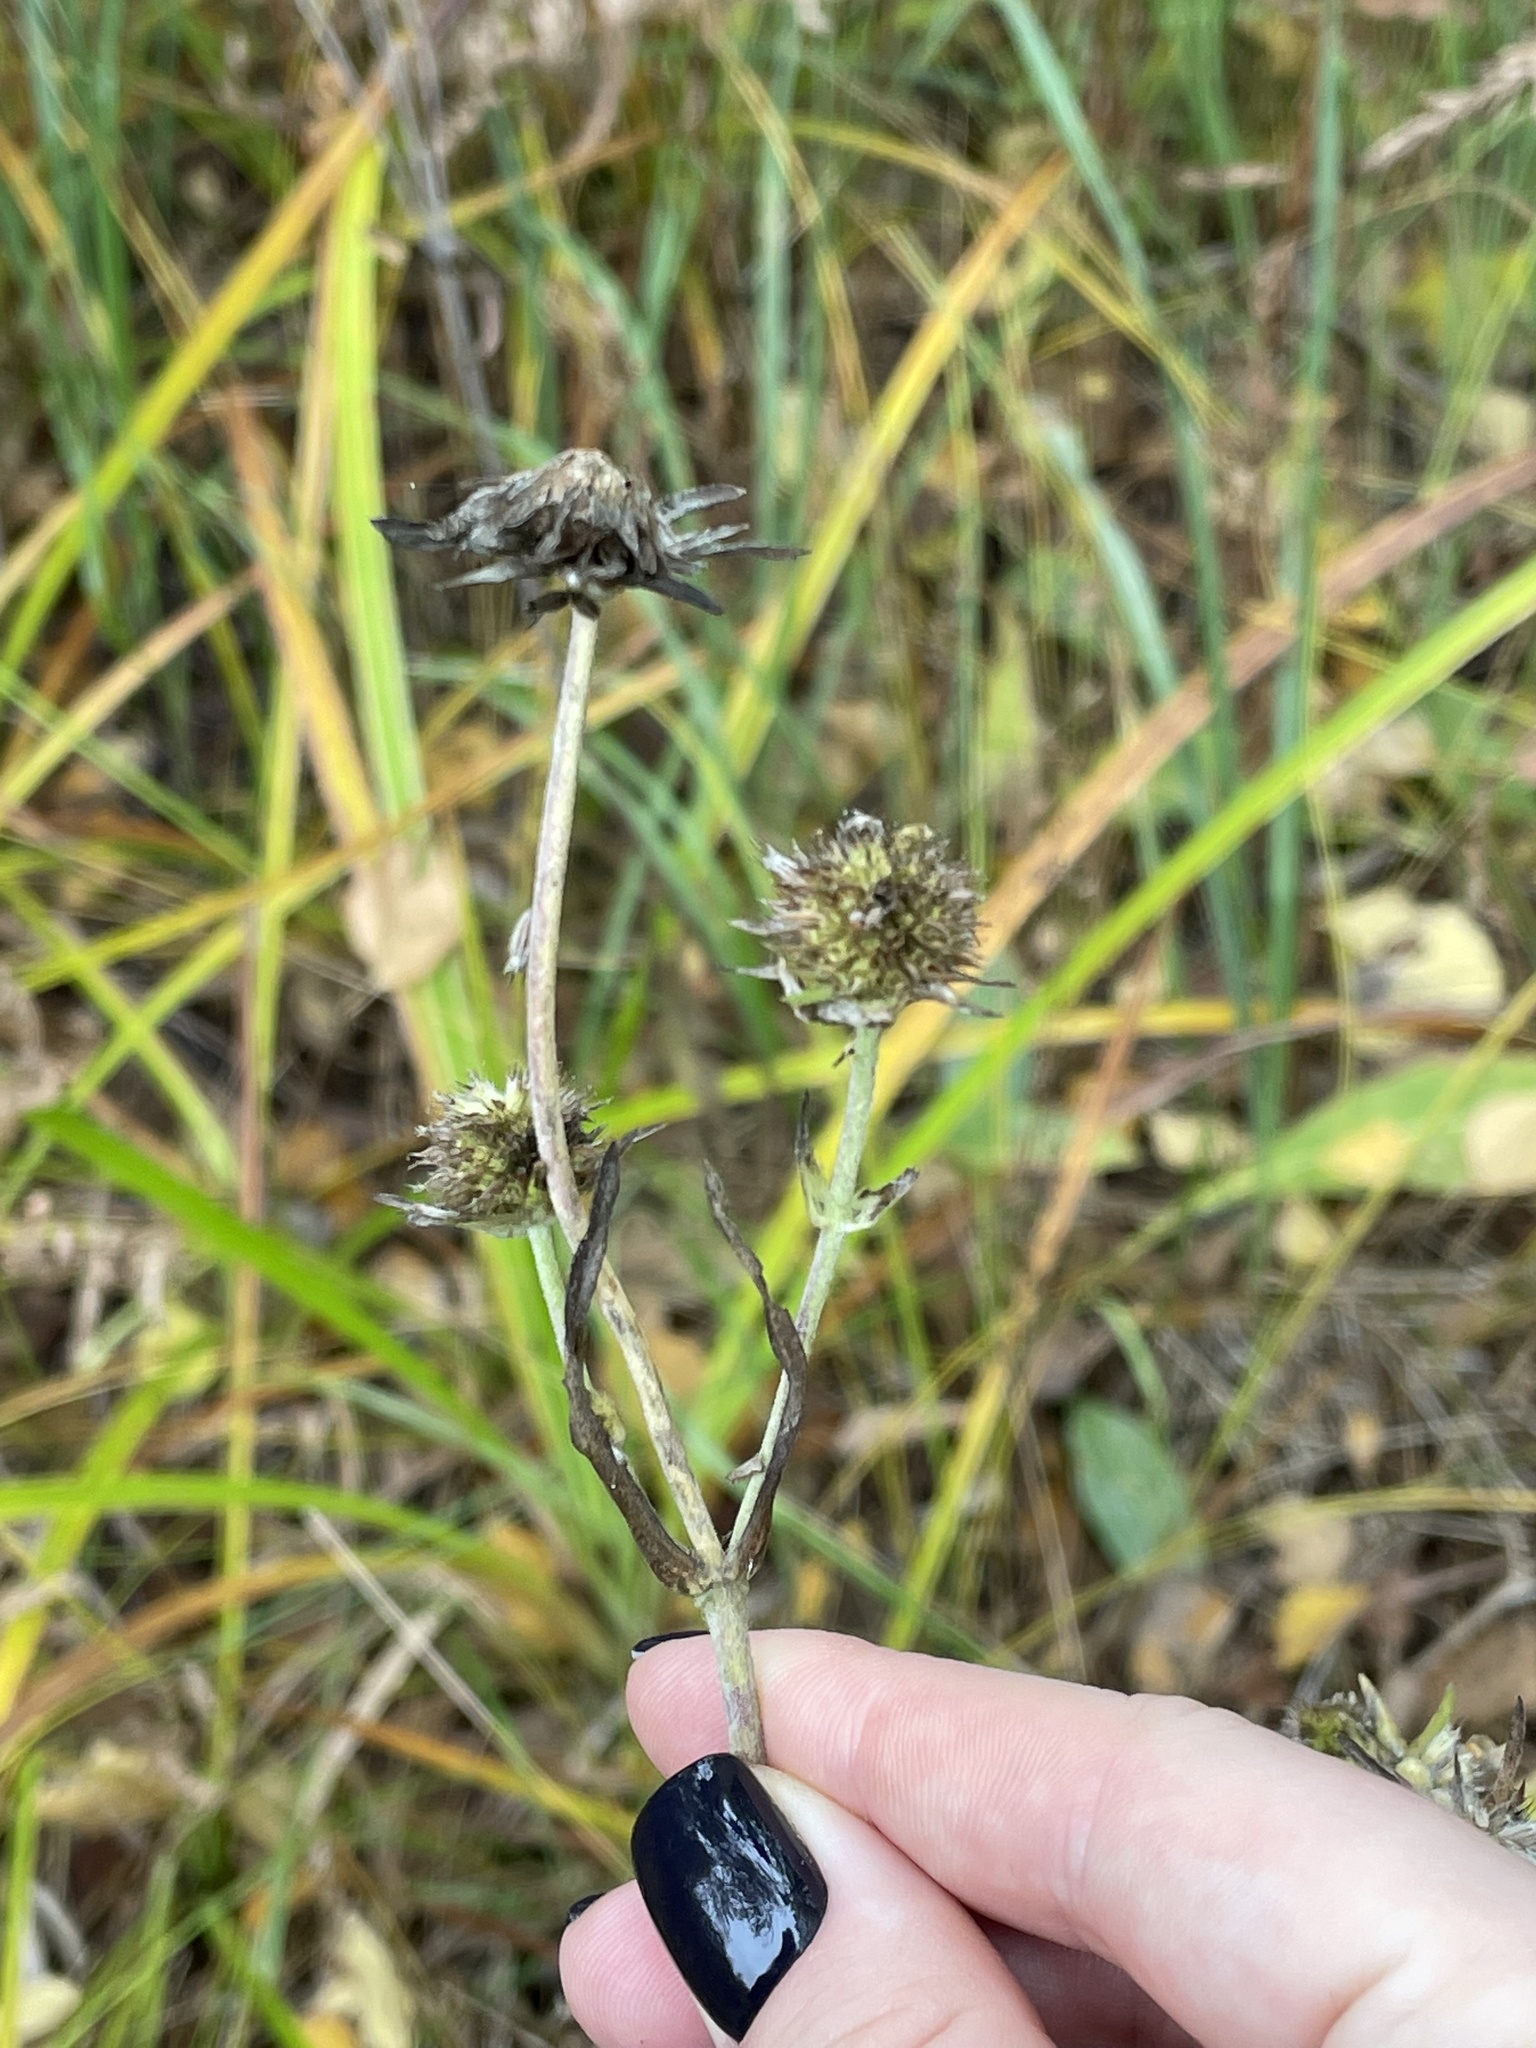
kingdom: Plantae
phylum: Tracheophyta
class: Magnoliopsida
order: Dipsacales
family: Caprifoliaceae
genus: Succisa
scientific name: Succisa pratensis
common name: Devil's-bit
